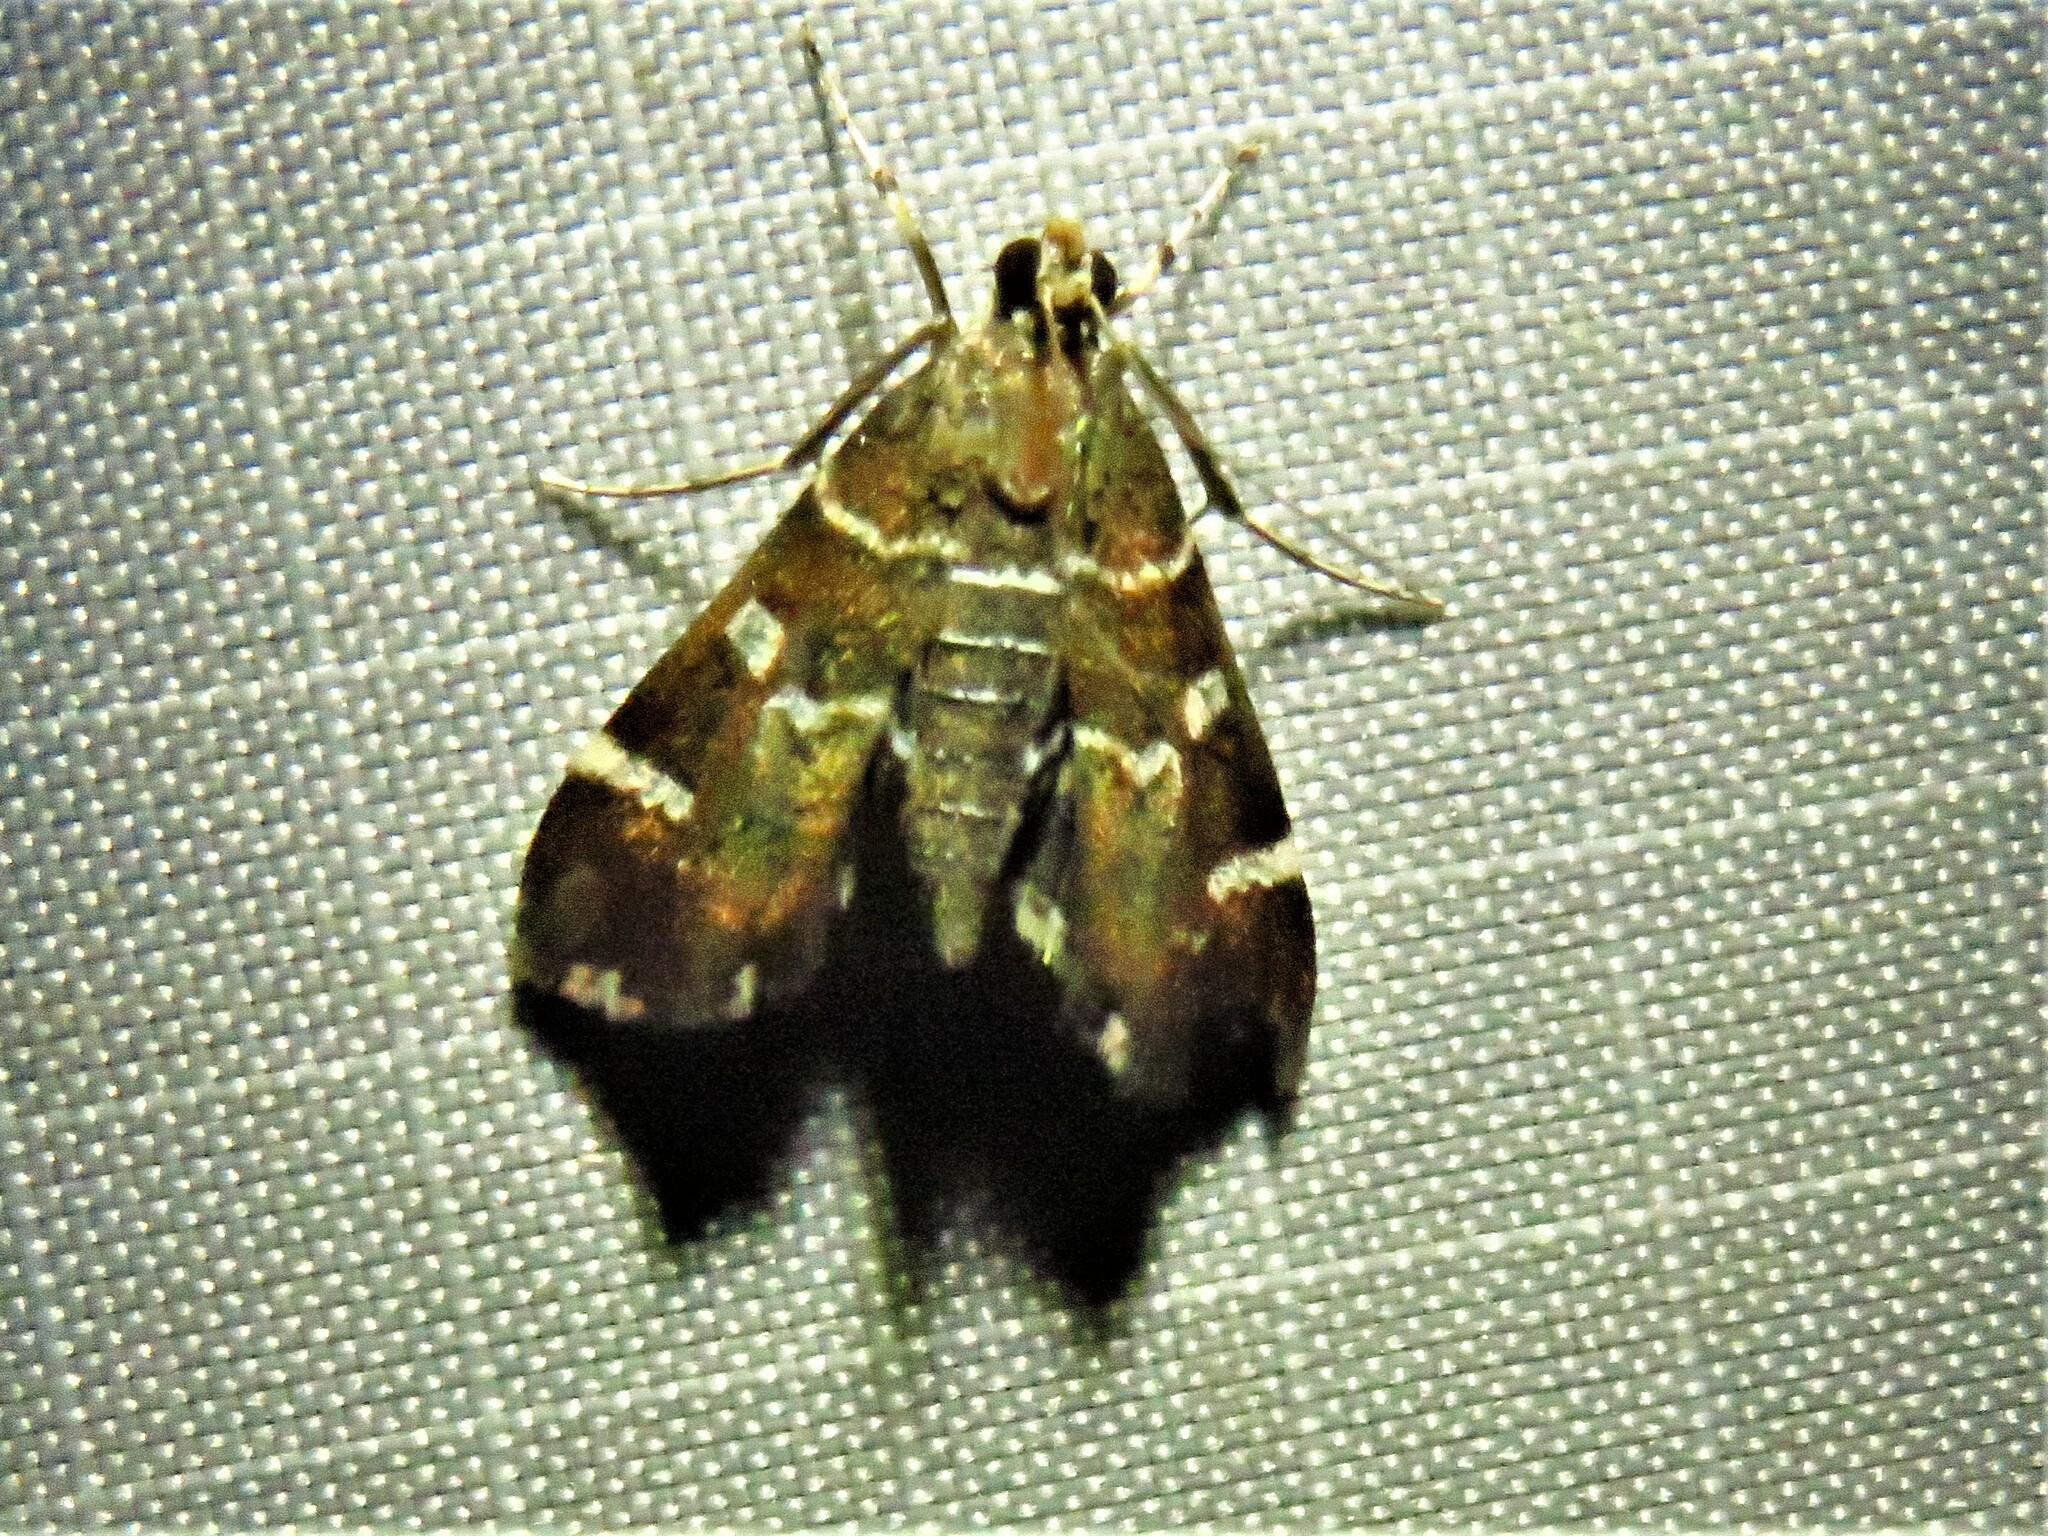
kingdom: Animalia
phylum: Arthropoda
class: Insecta
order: Lepidoptera
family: Crambidae
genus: Hymenia
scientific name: Hymenia perspectalis
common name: Spotted beet webworm
